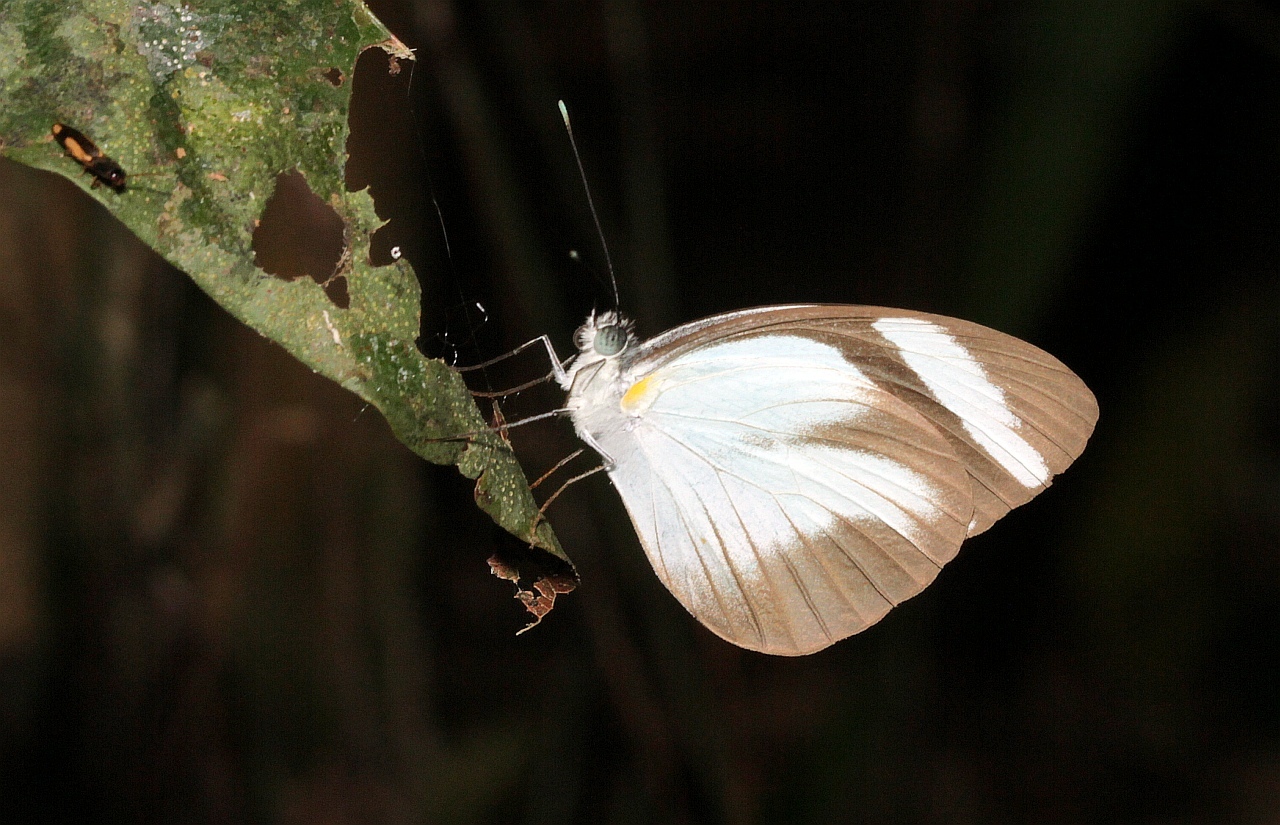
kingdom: Animalia
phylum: Arthropoda
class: Insecta
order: Lepidoptera
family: Pieridae
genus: Itaballia
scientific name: Itaballia demophile
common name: Cross-barred white
